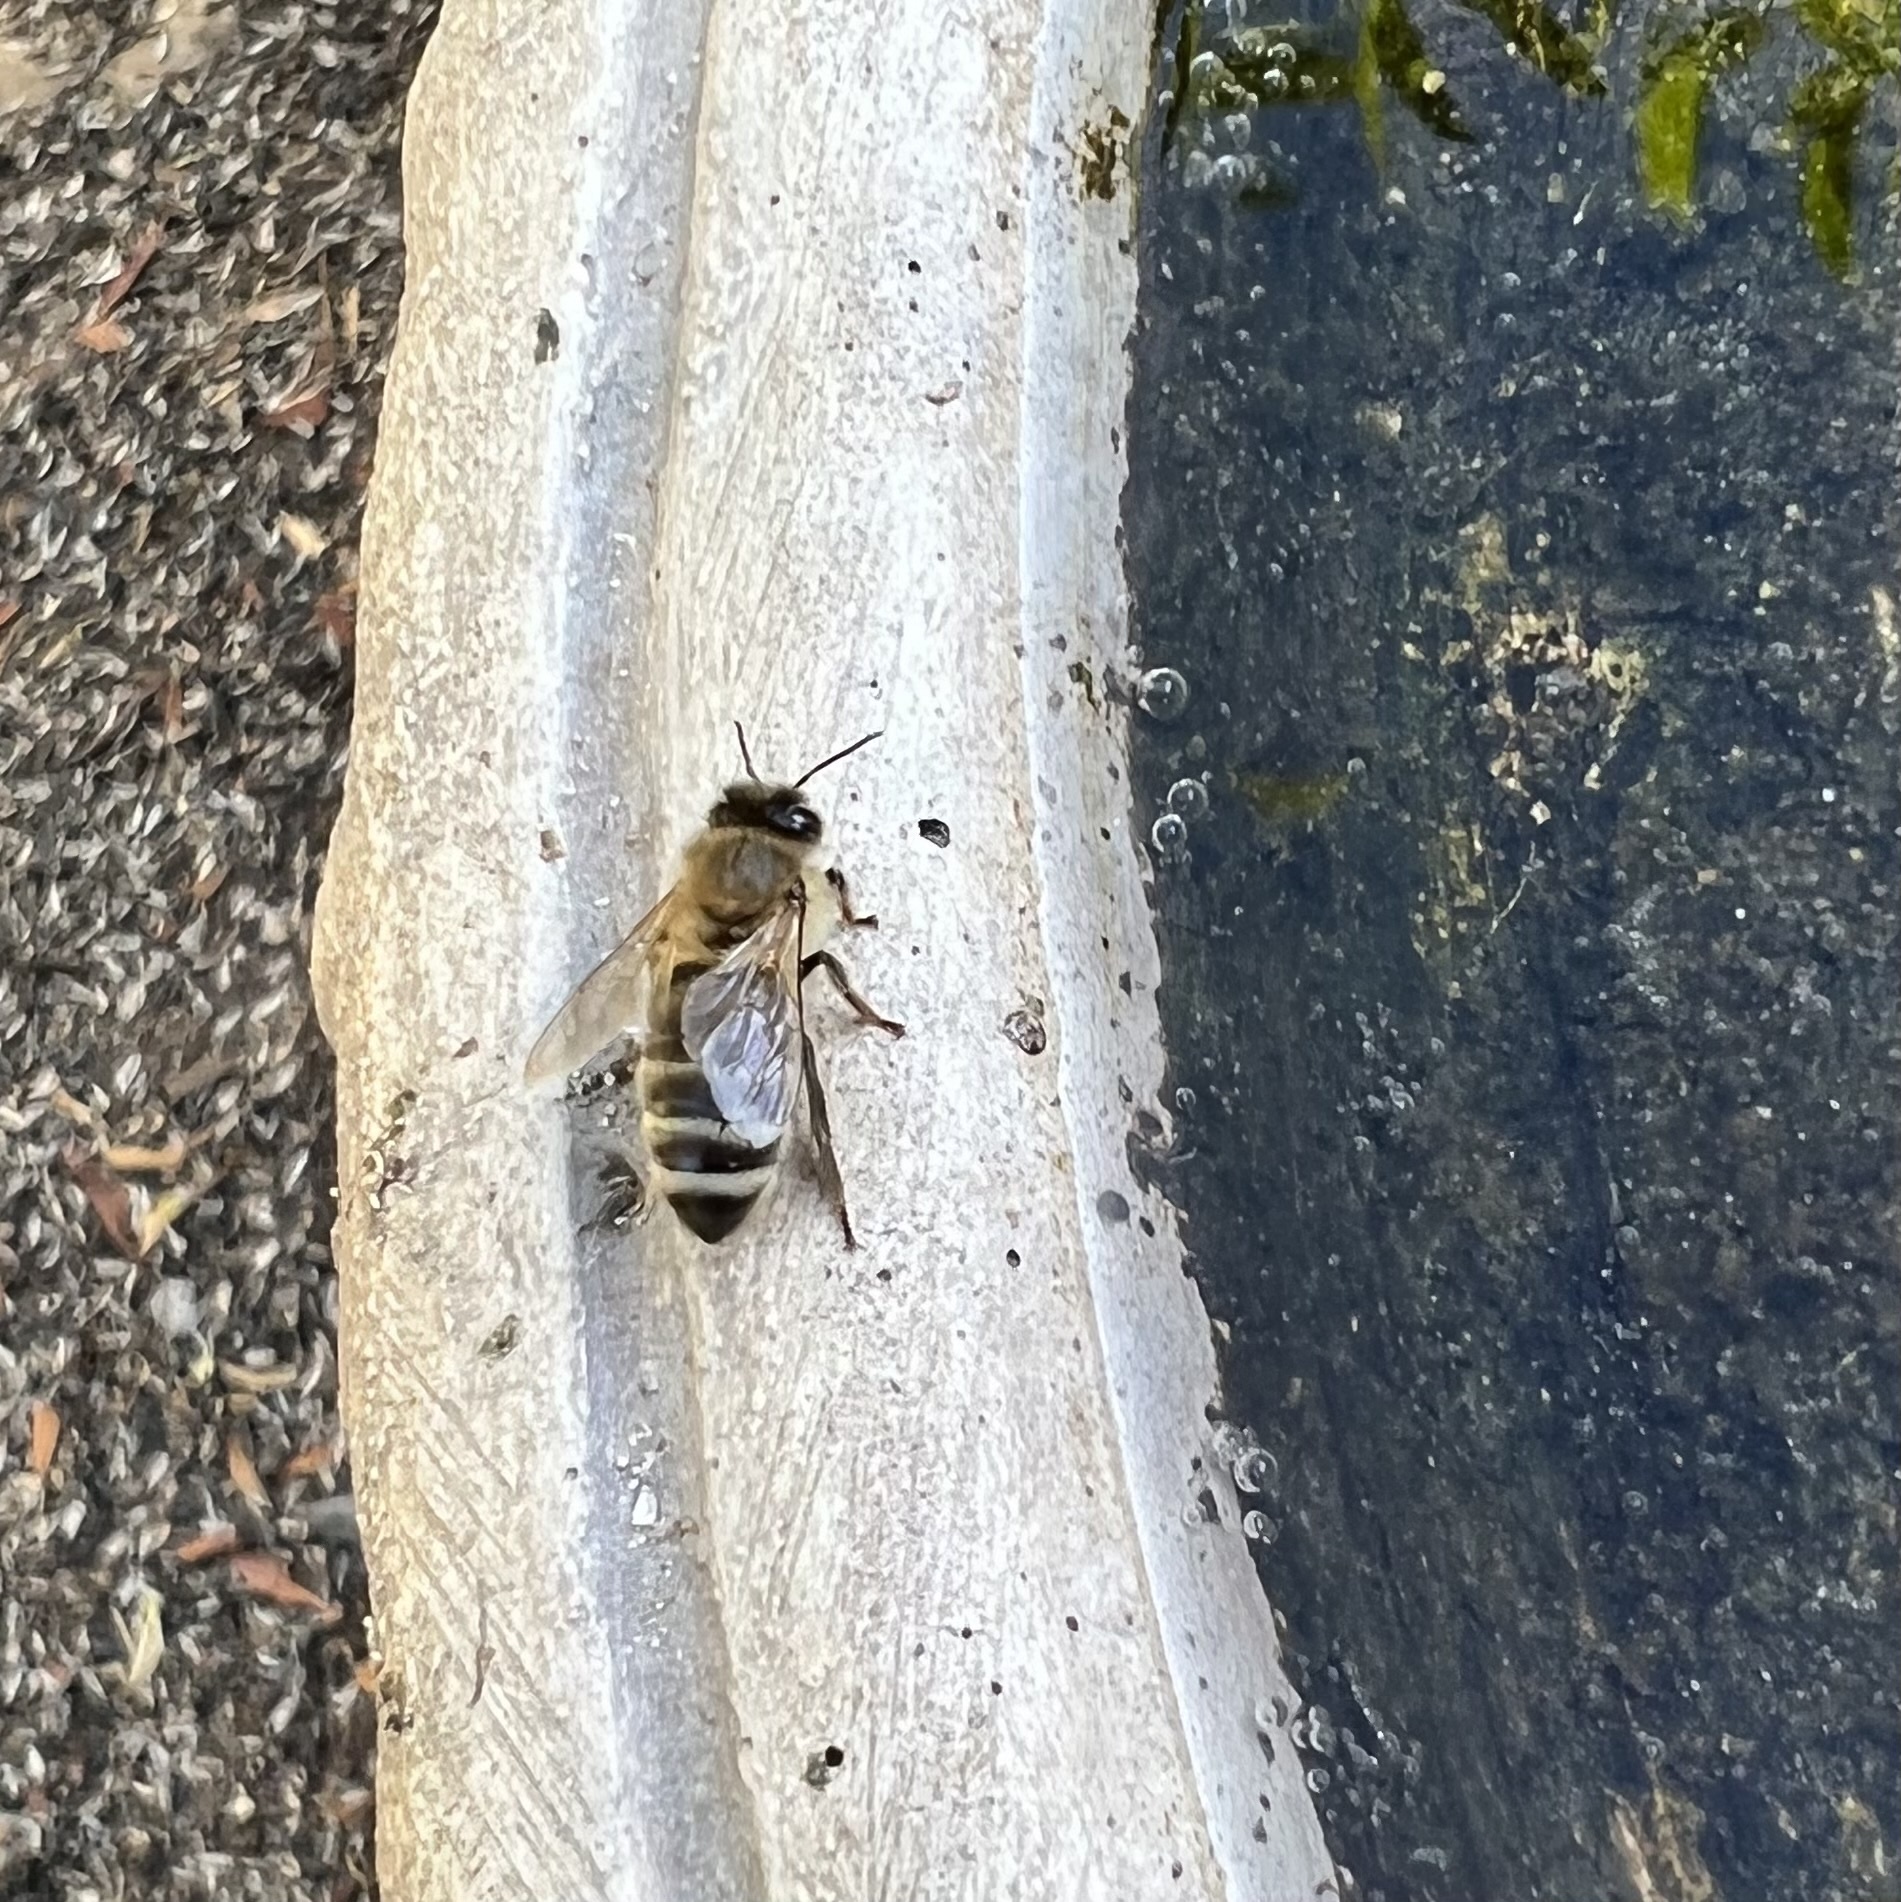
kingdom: Animalia
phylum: Arthropoda
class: Insecta
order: Hymenoptera
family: Apidae
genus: Apis
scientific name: Apis mellifera
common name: Honey bee
